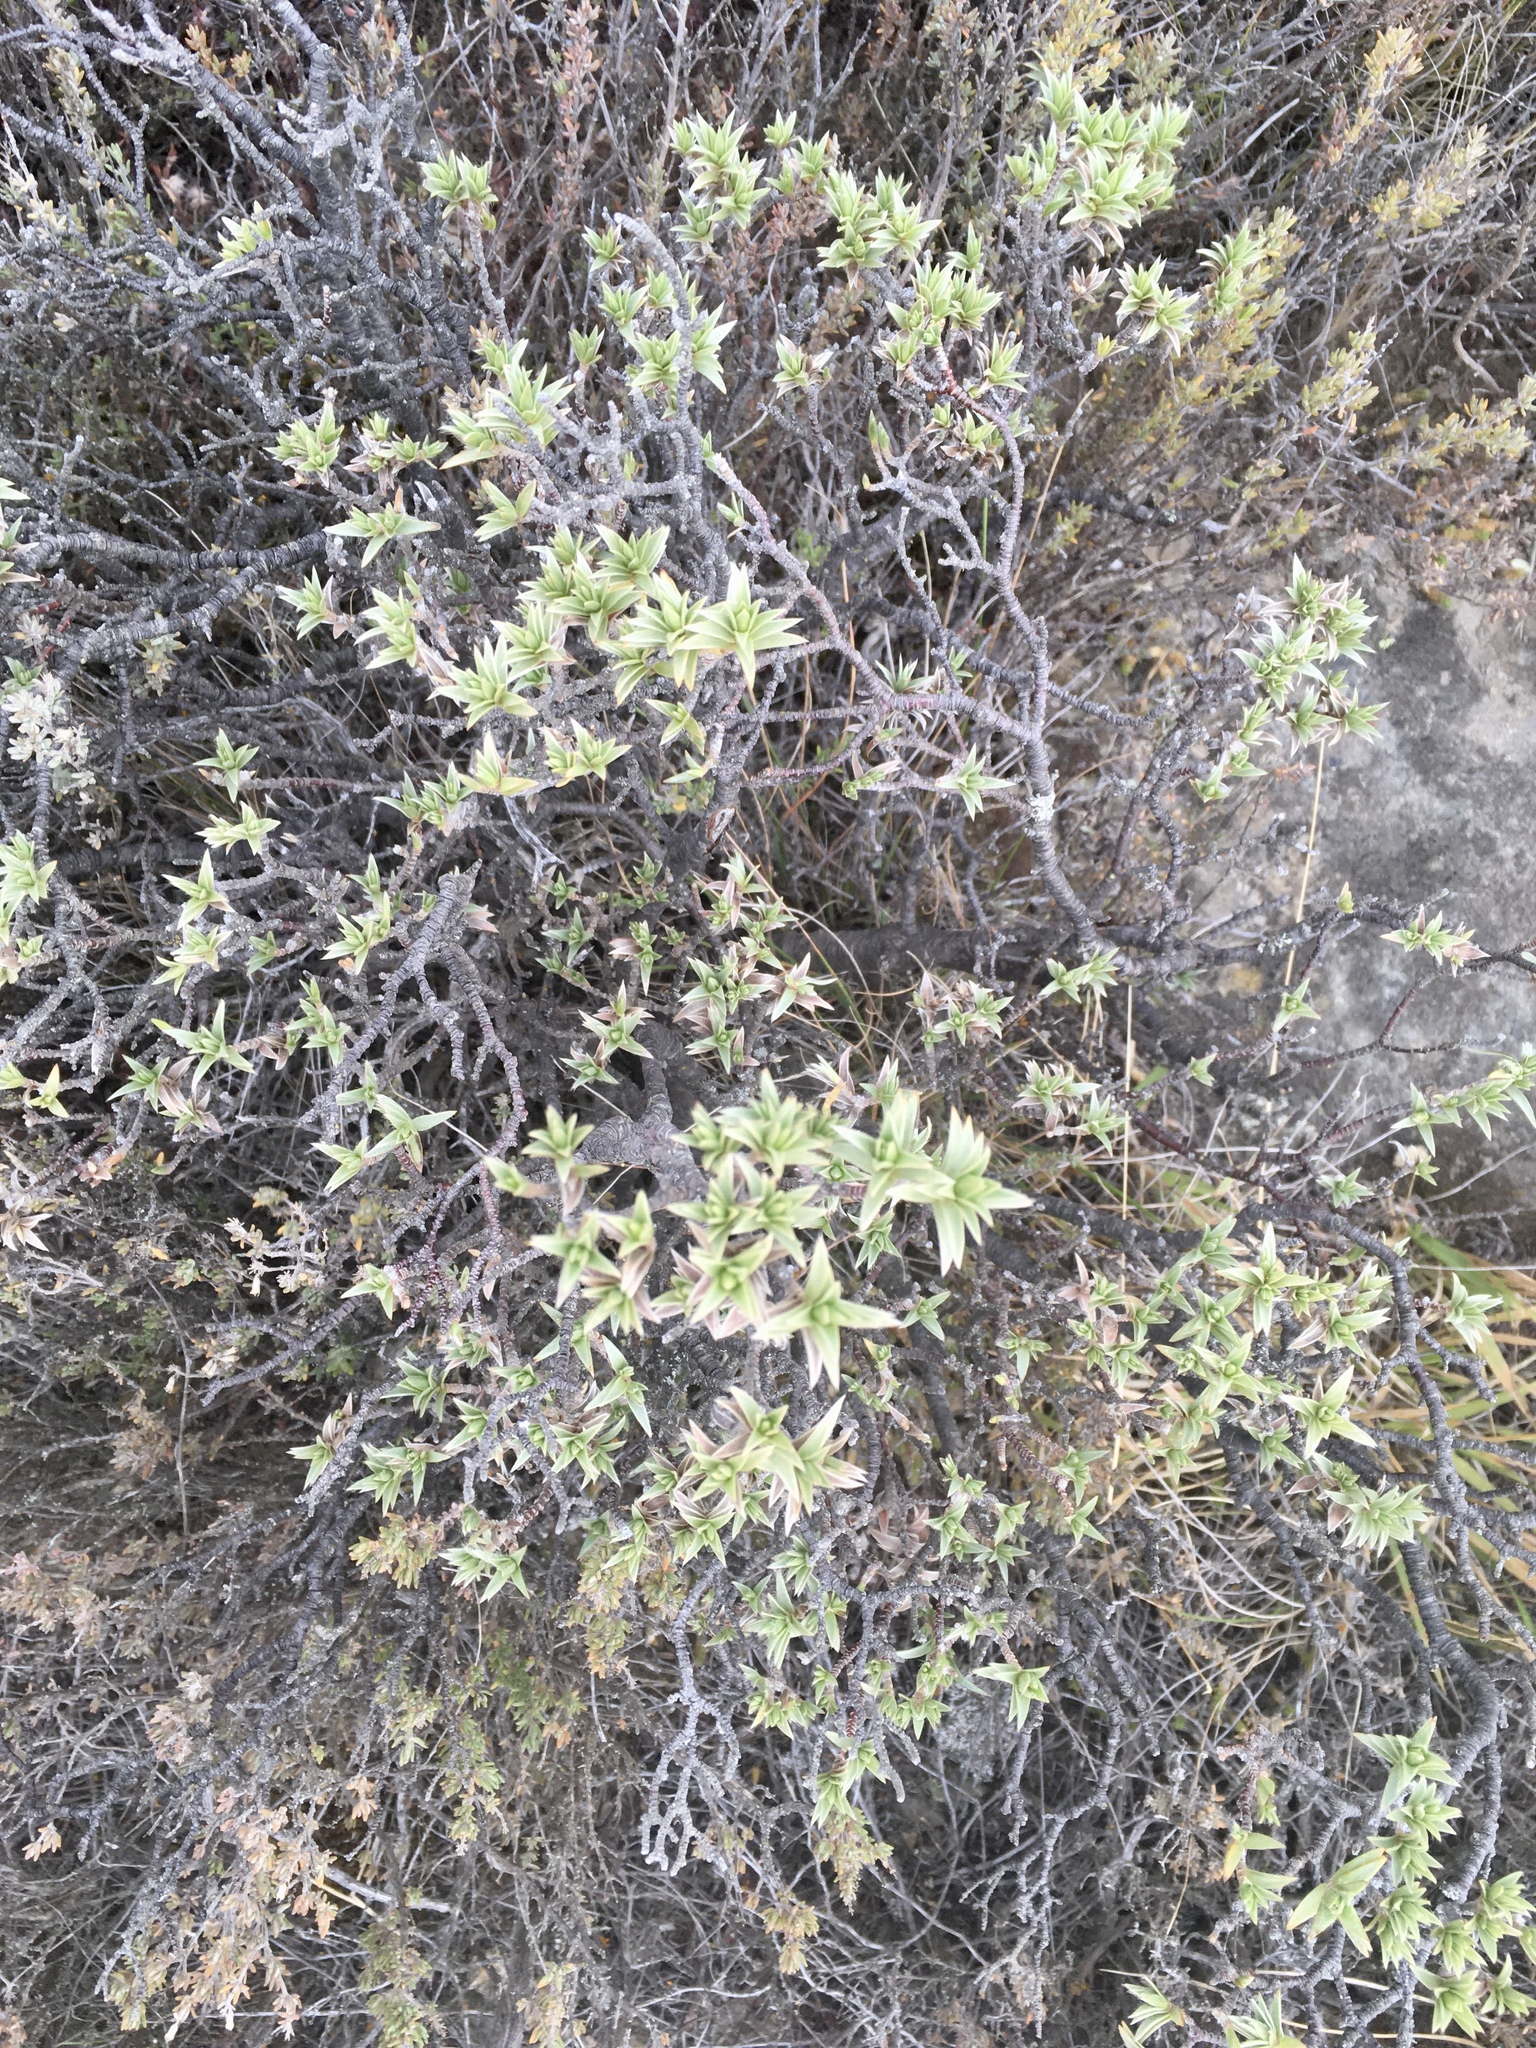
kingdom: Plantae
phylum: Tracheophyta
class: Magnoliopsida
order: Malvales
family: Thymelaeaceae
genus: Pimelea
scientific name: Pimelea aridula
